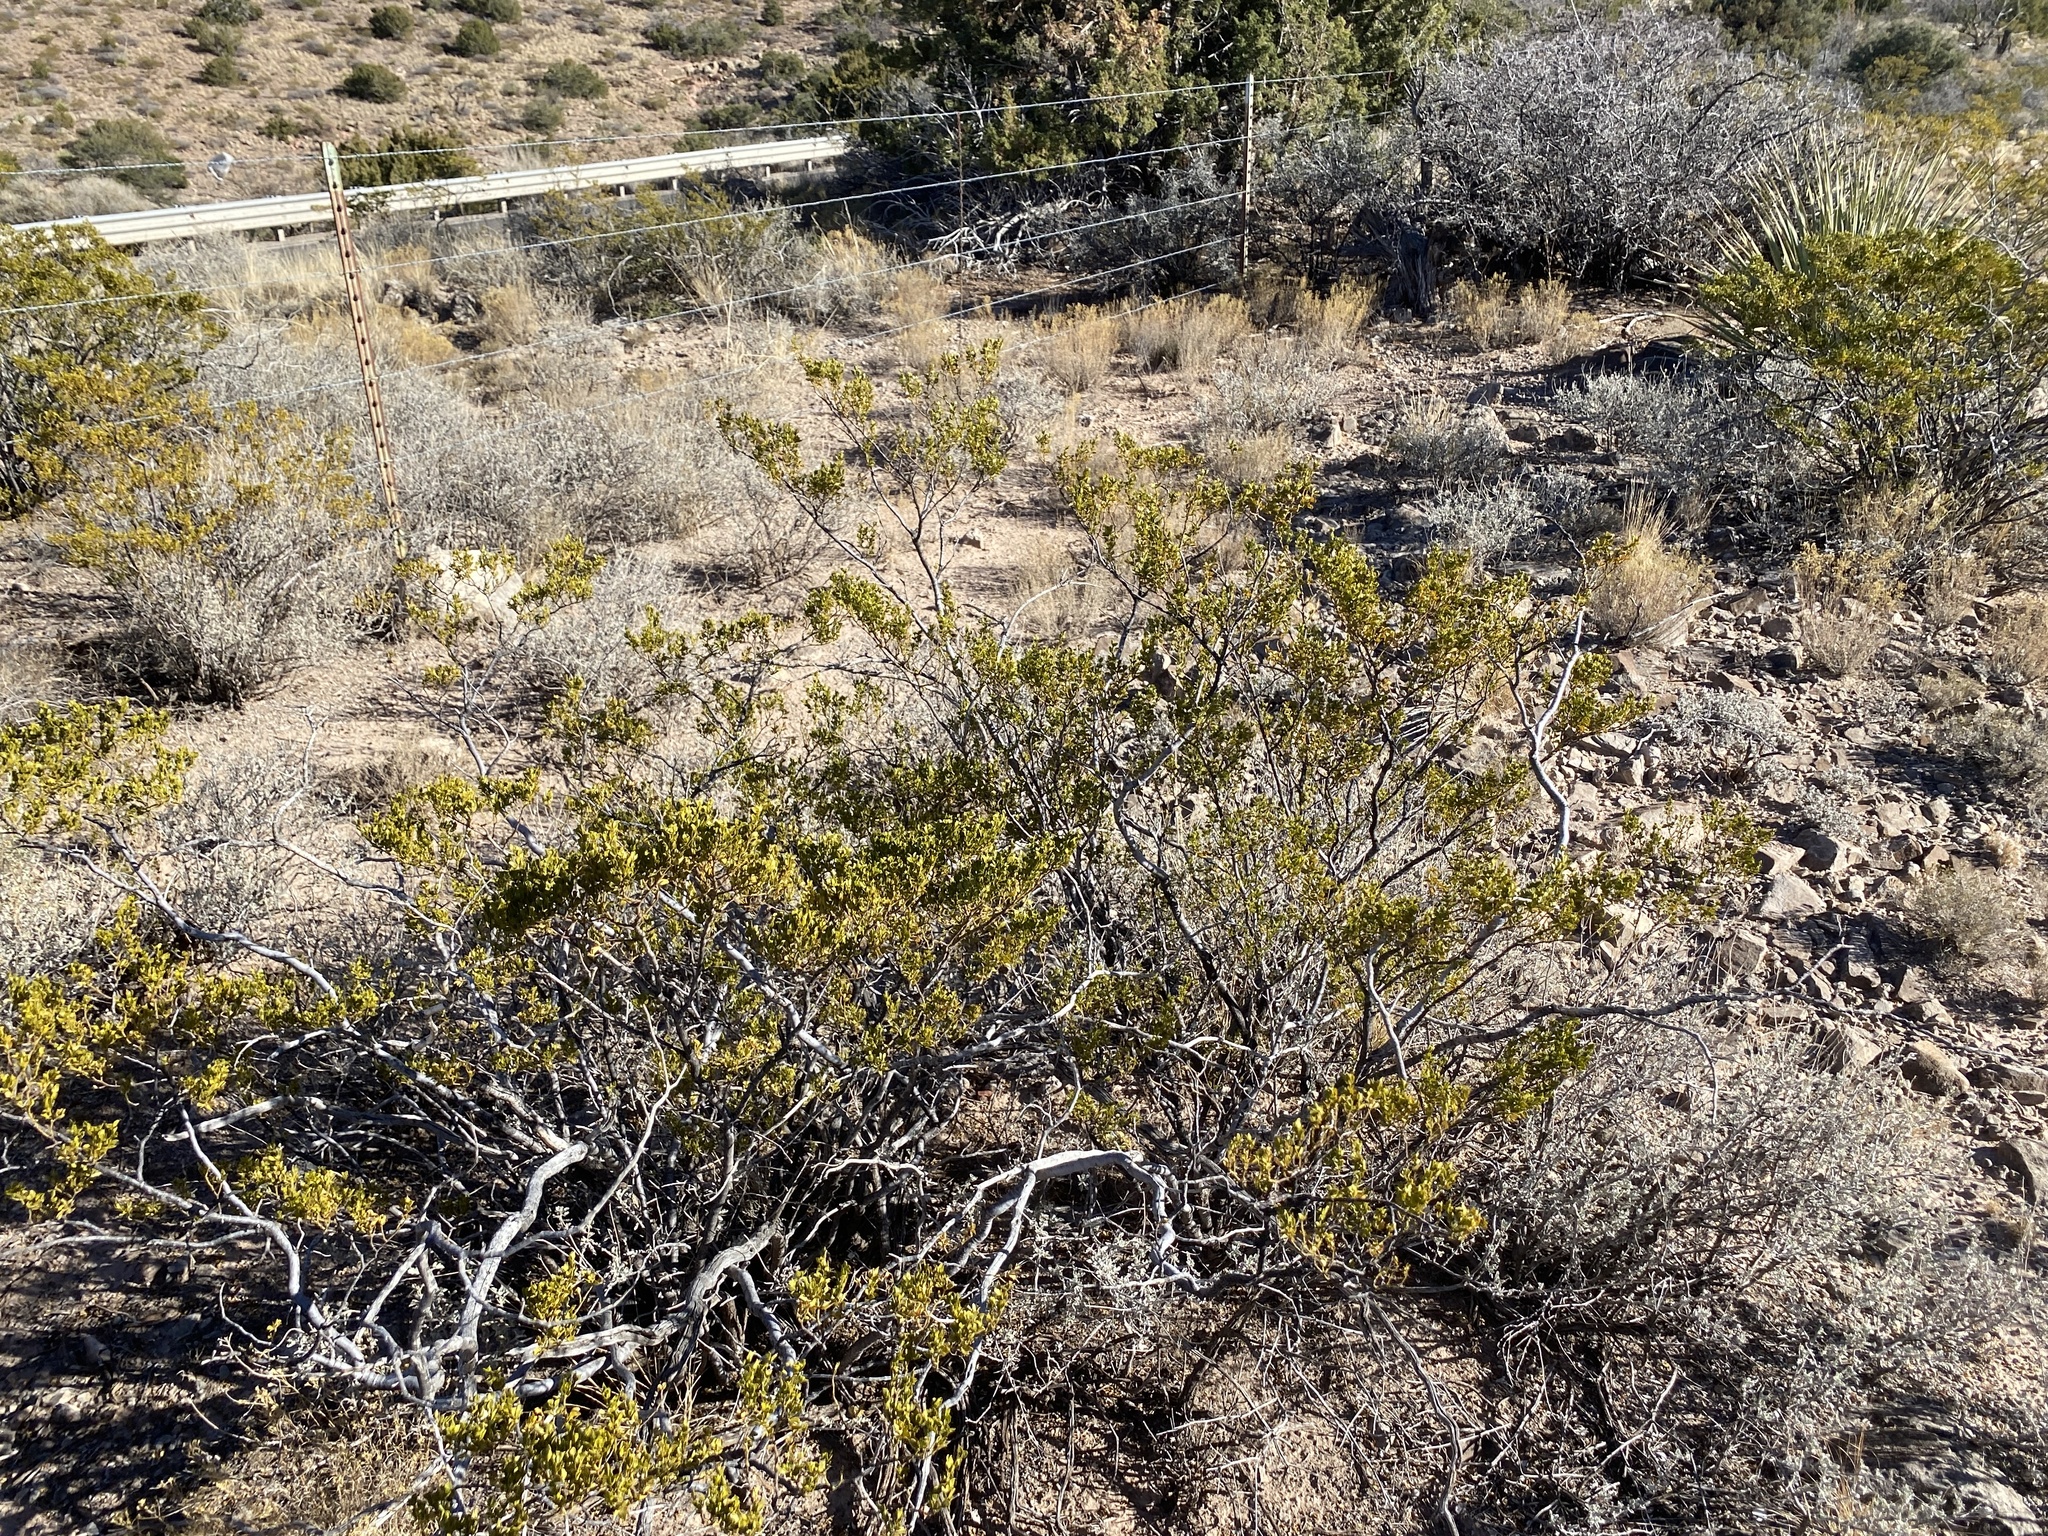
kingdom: Plantae
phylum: Tracheophyta
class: Magnoliopsida
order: Zygophyllales
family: Zygophyllaceae
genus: Larrea
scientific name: Larrea tridentata
